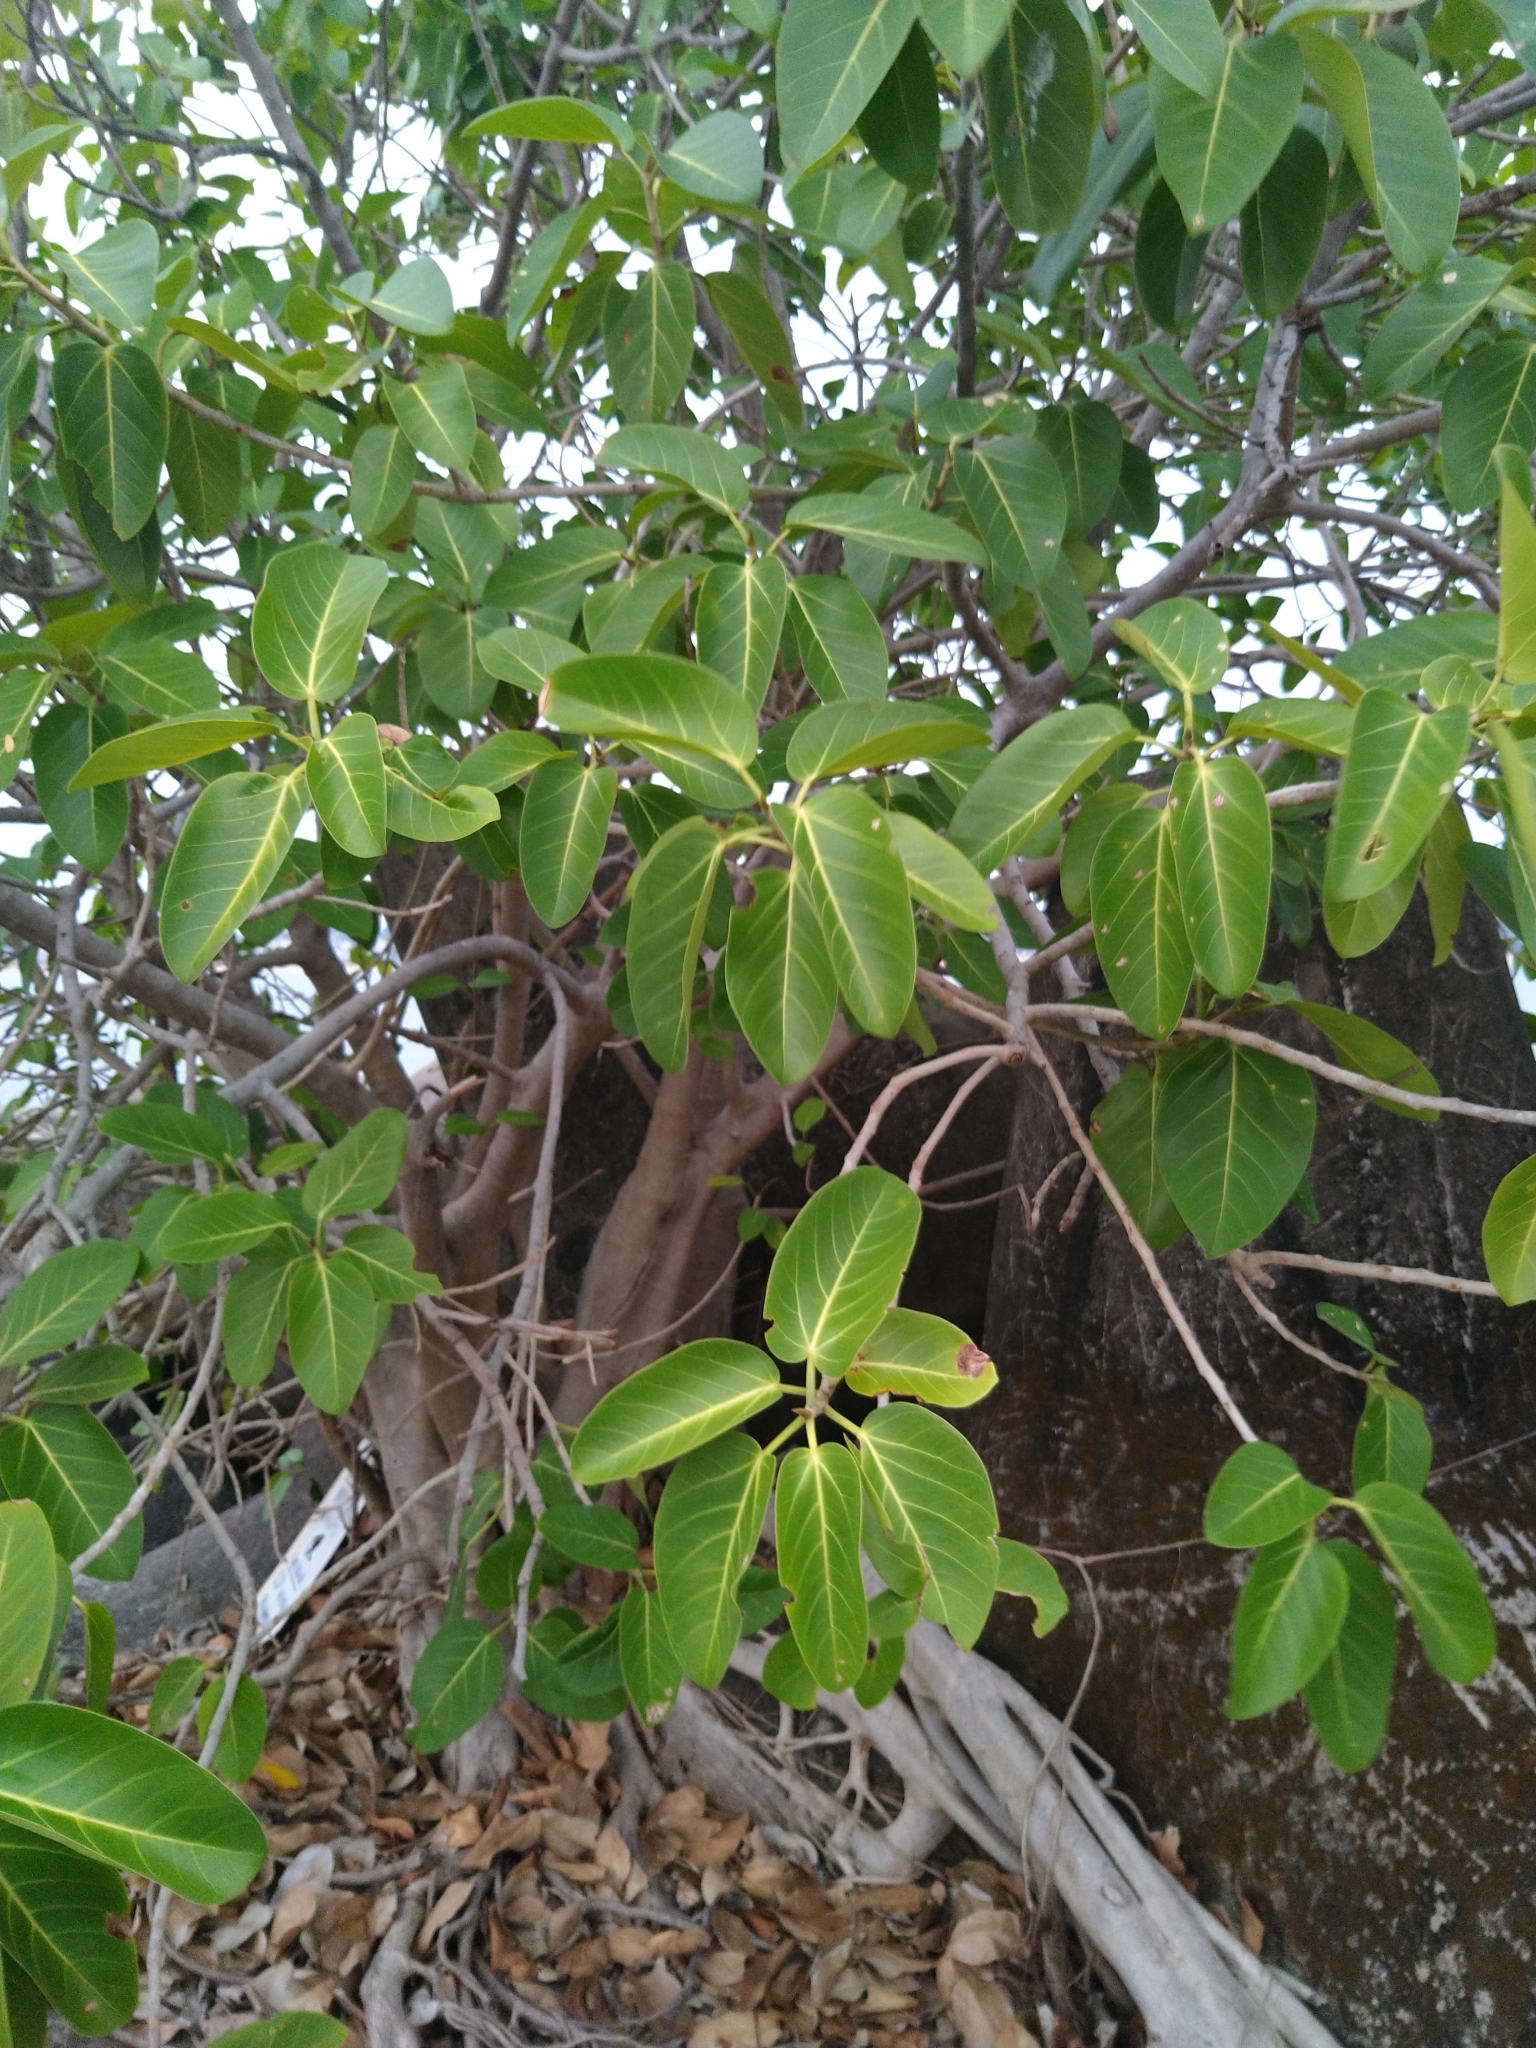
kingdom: Plantae
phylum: Tracheophyta
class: Magnoliopsida
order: Rosales
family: Moraceae
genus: Ficus
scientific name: Ficus benghalensis
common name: Indian banyan
